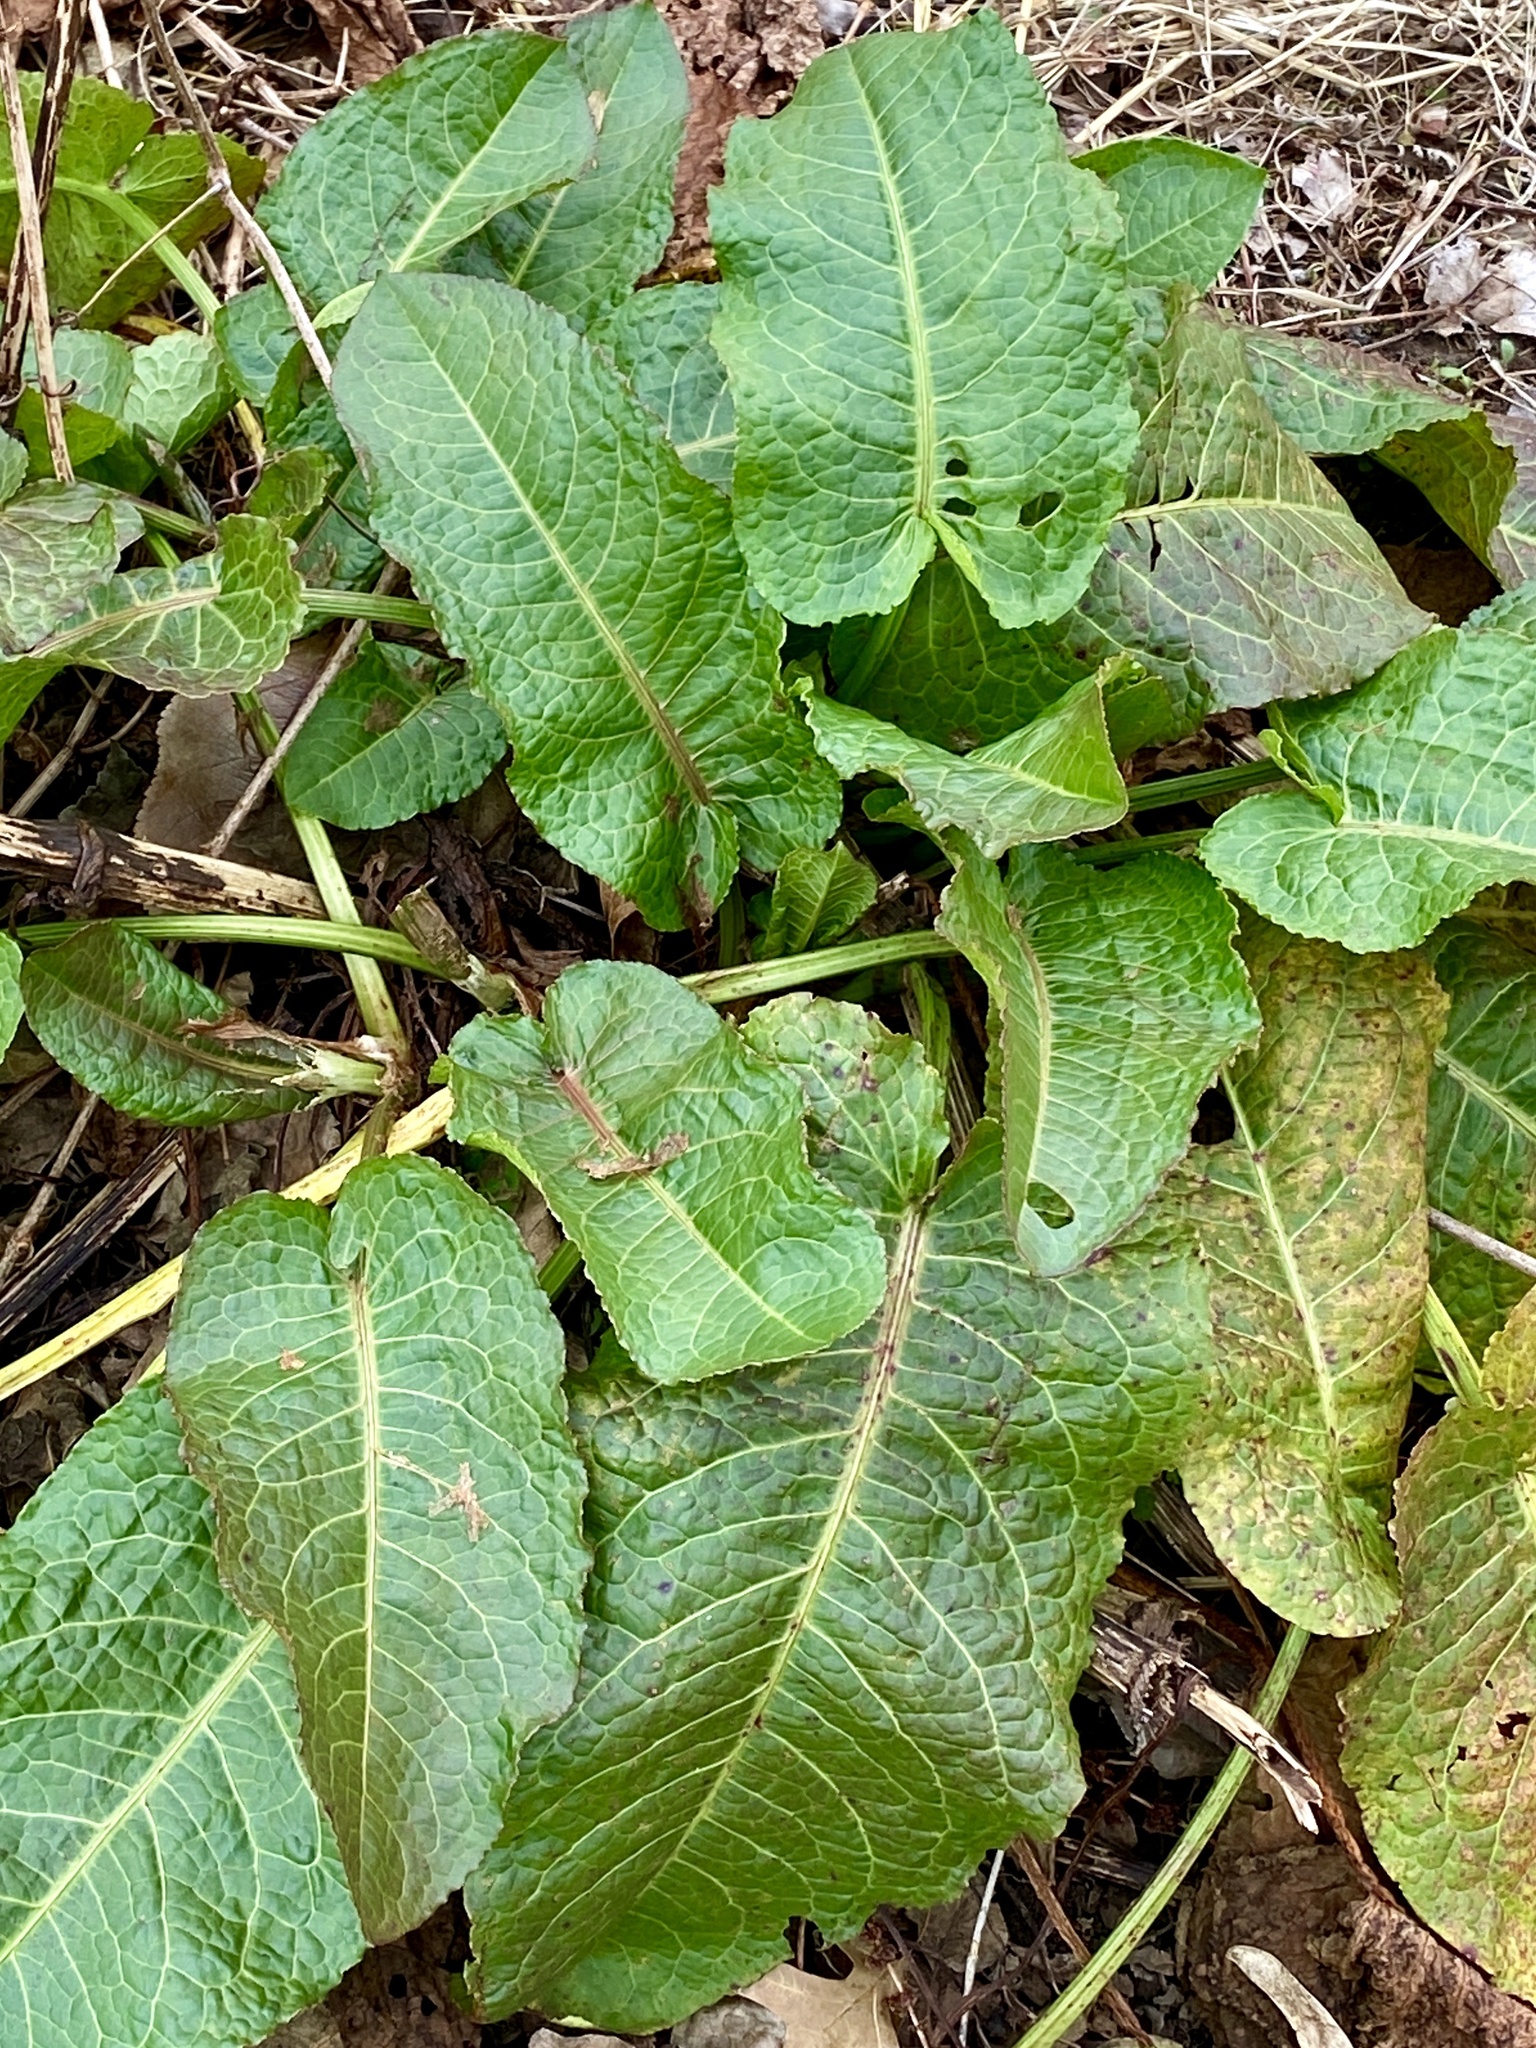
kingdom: Plantae
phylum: Tracheophyta
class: Magnoliopsida
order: Caryophyllales
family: Polygonaceae
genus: Rumex
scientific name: Rumex obtusifolius
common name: Bitter dock
